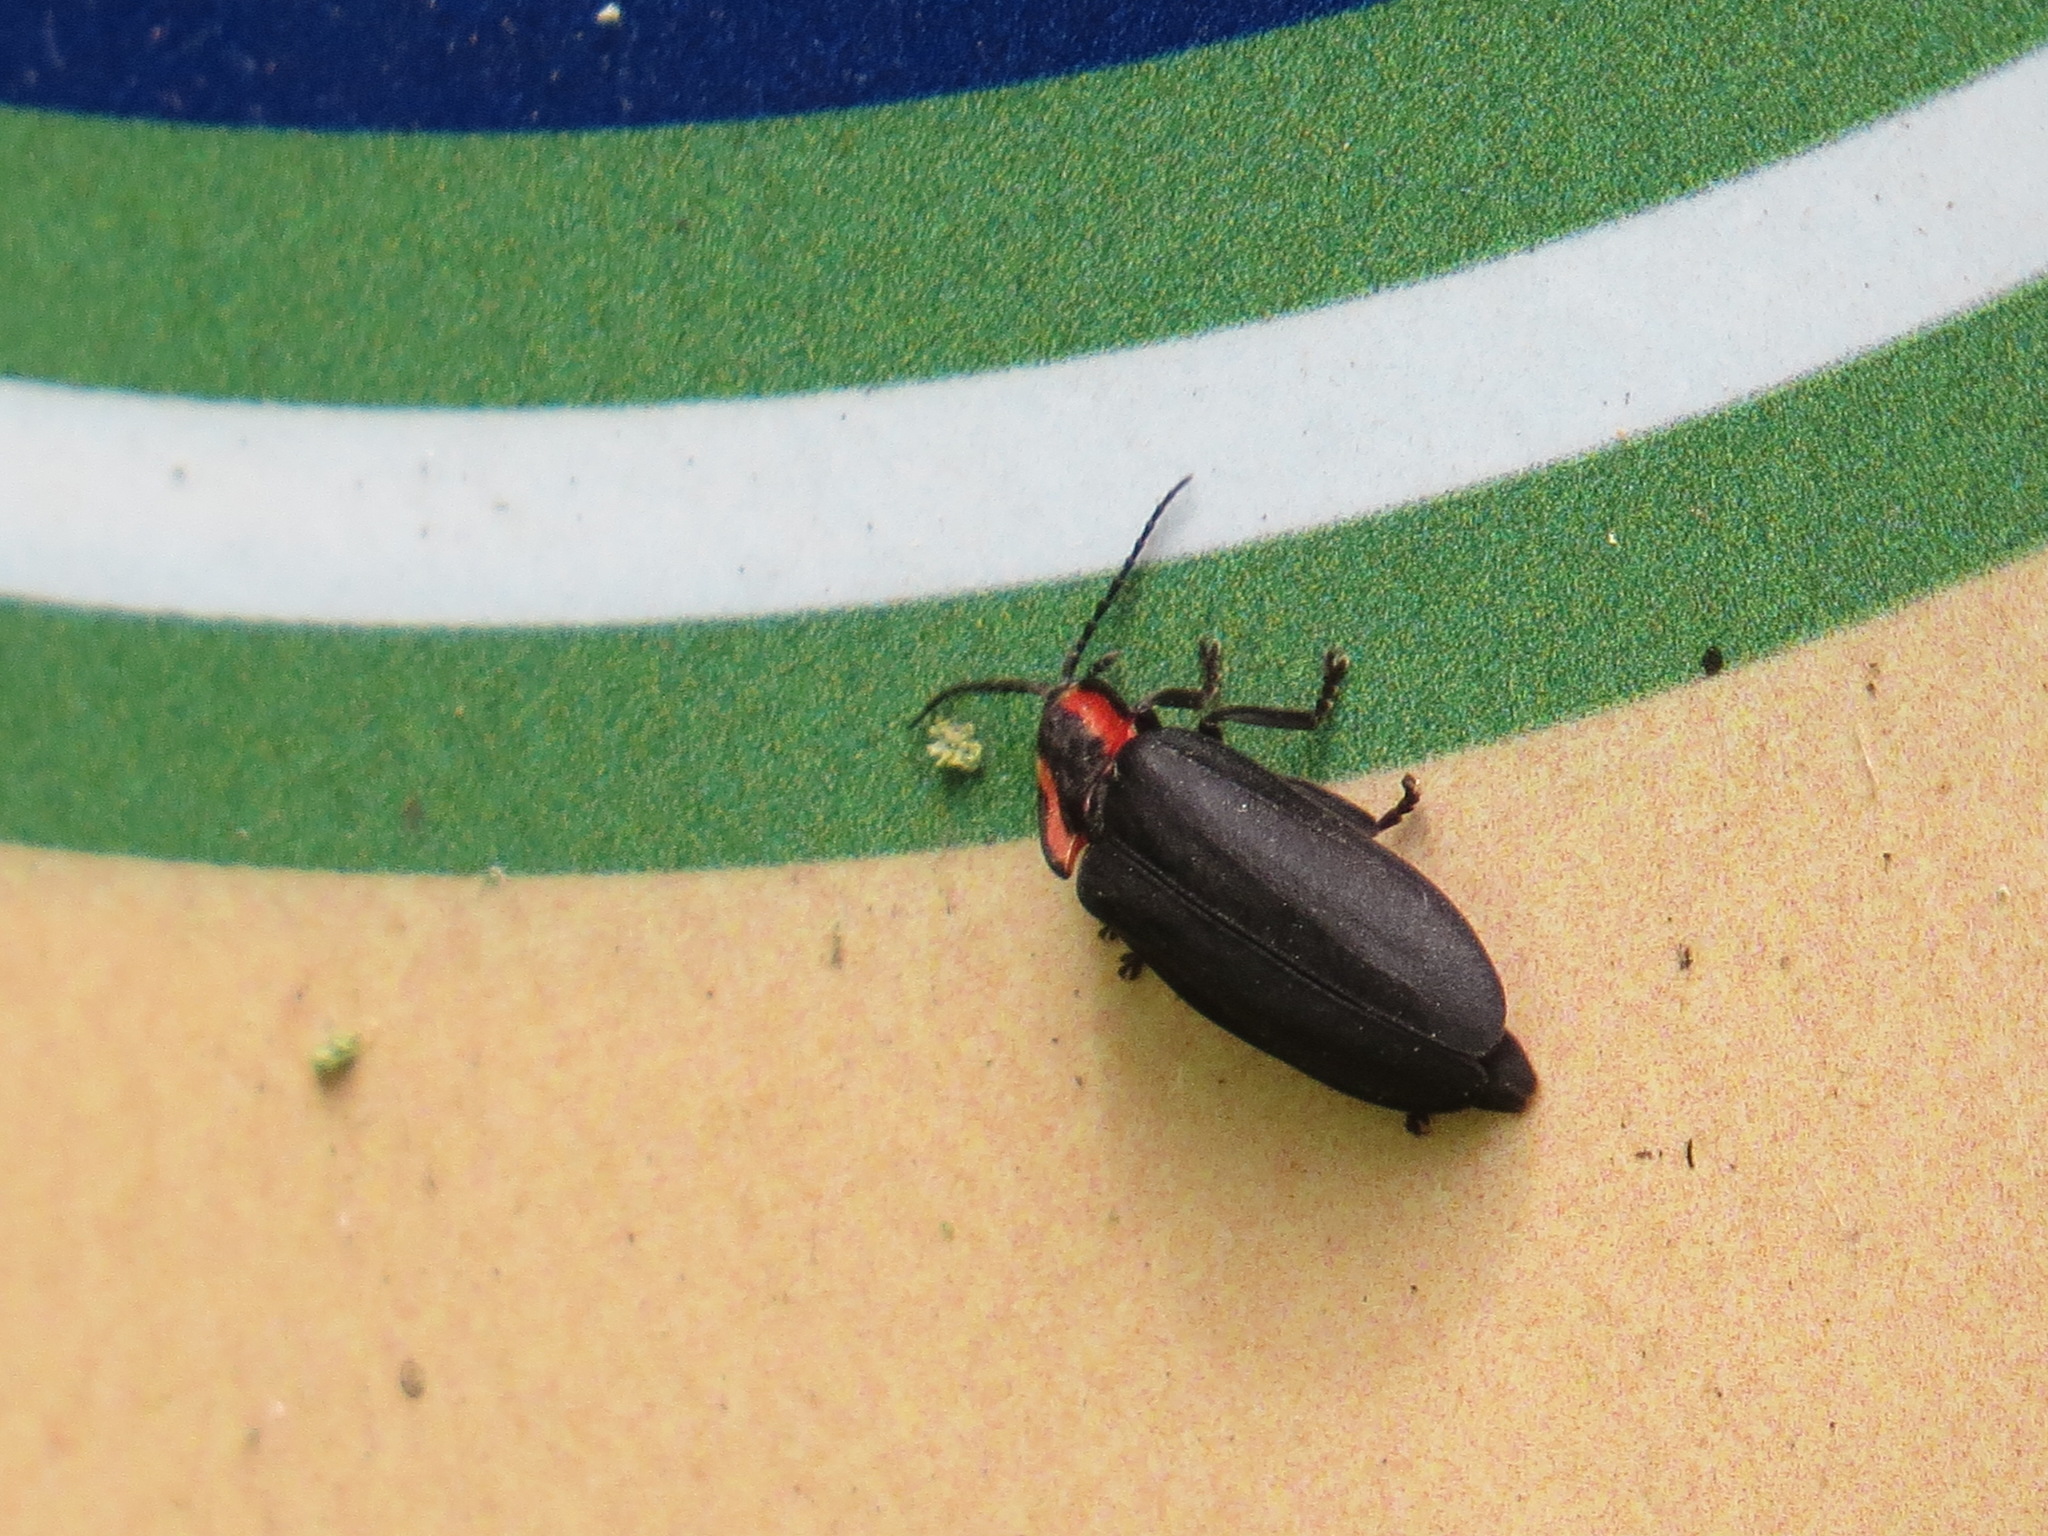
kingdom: Animalia
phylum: Arthropoda
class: Insecta
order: Coleoptera
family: Lampyridae
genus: Photinus
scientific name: Photinus californica
